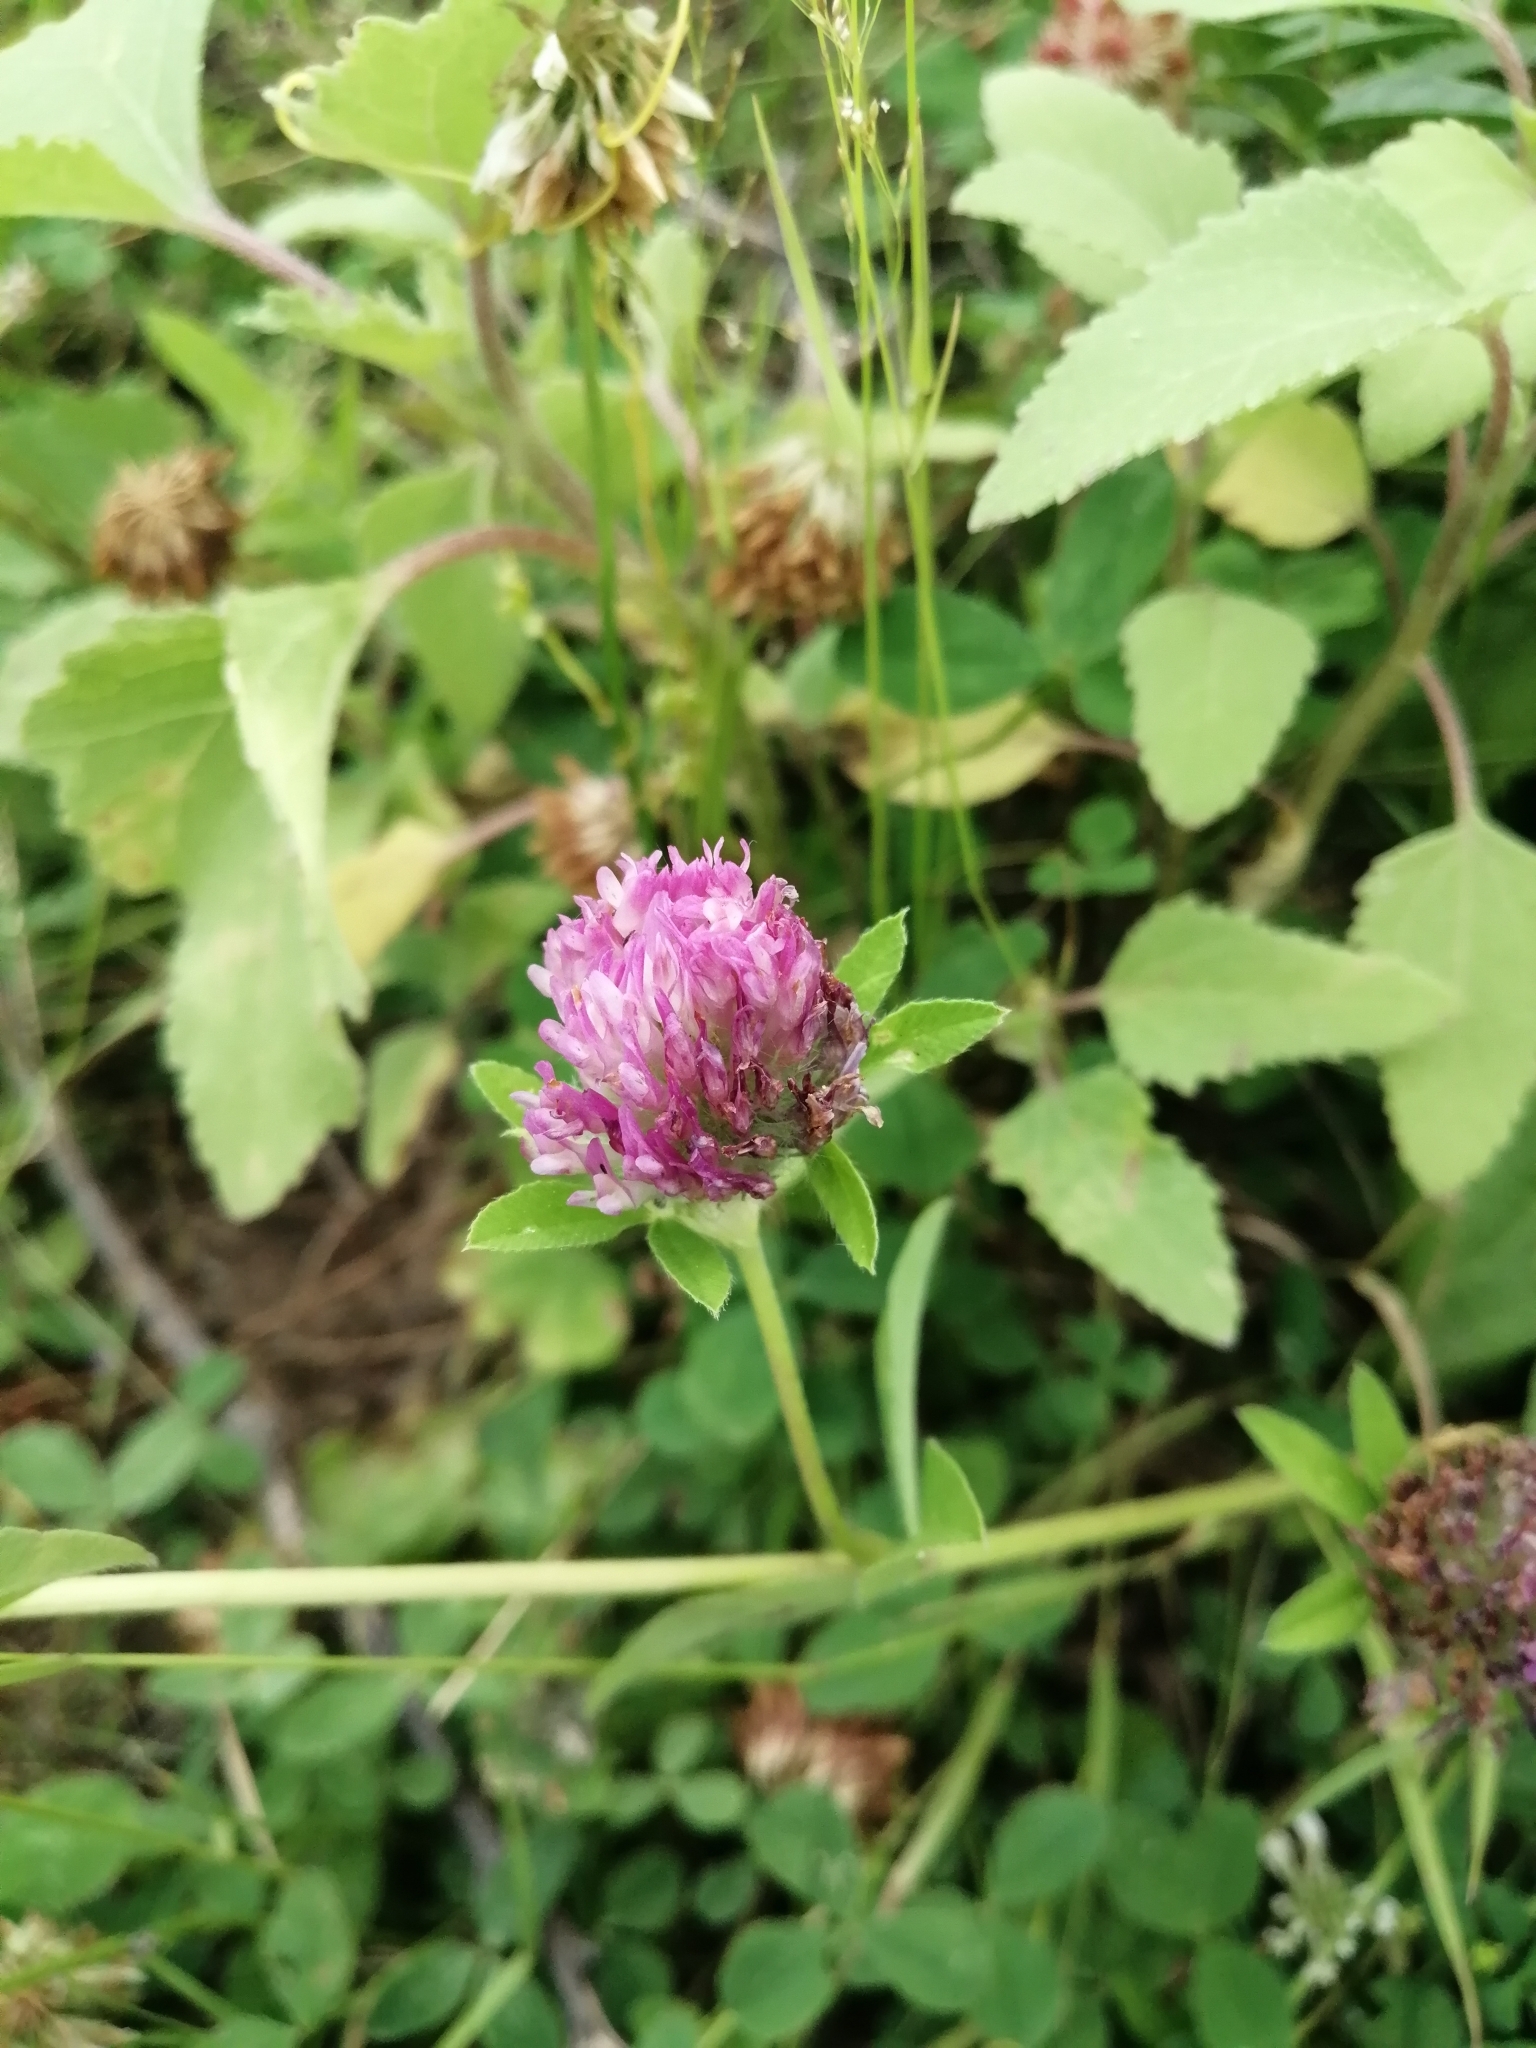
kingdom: Plantae
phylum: Tracheophyta
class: Magnoliopsida
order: Fabales
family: Fabaceae
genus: Trifolium
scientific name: Trifolium pratense
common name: Red clover
